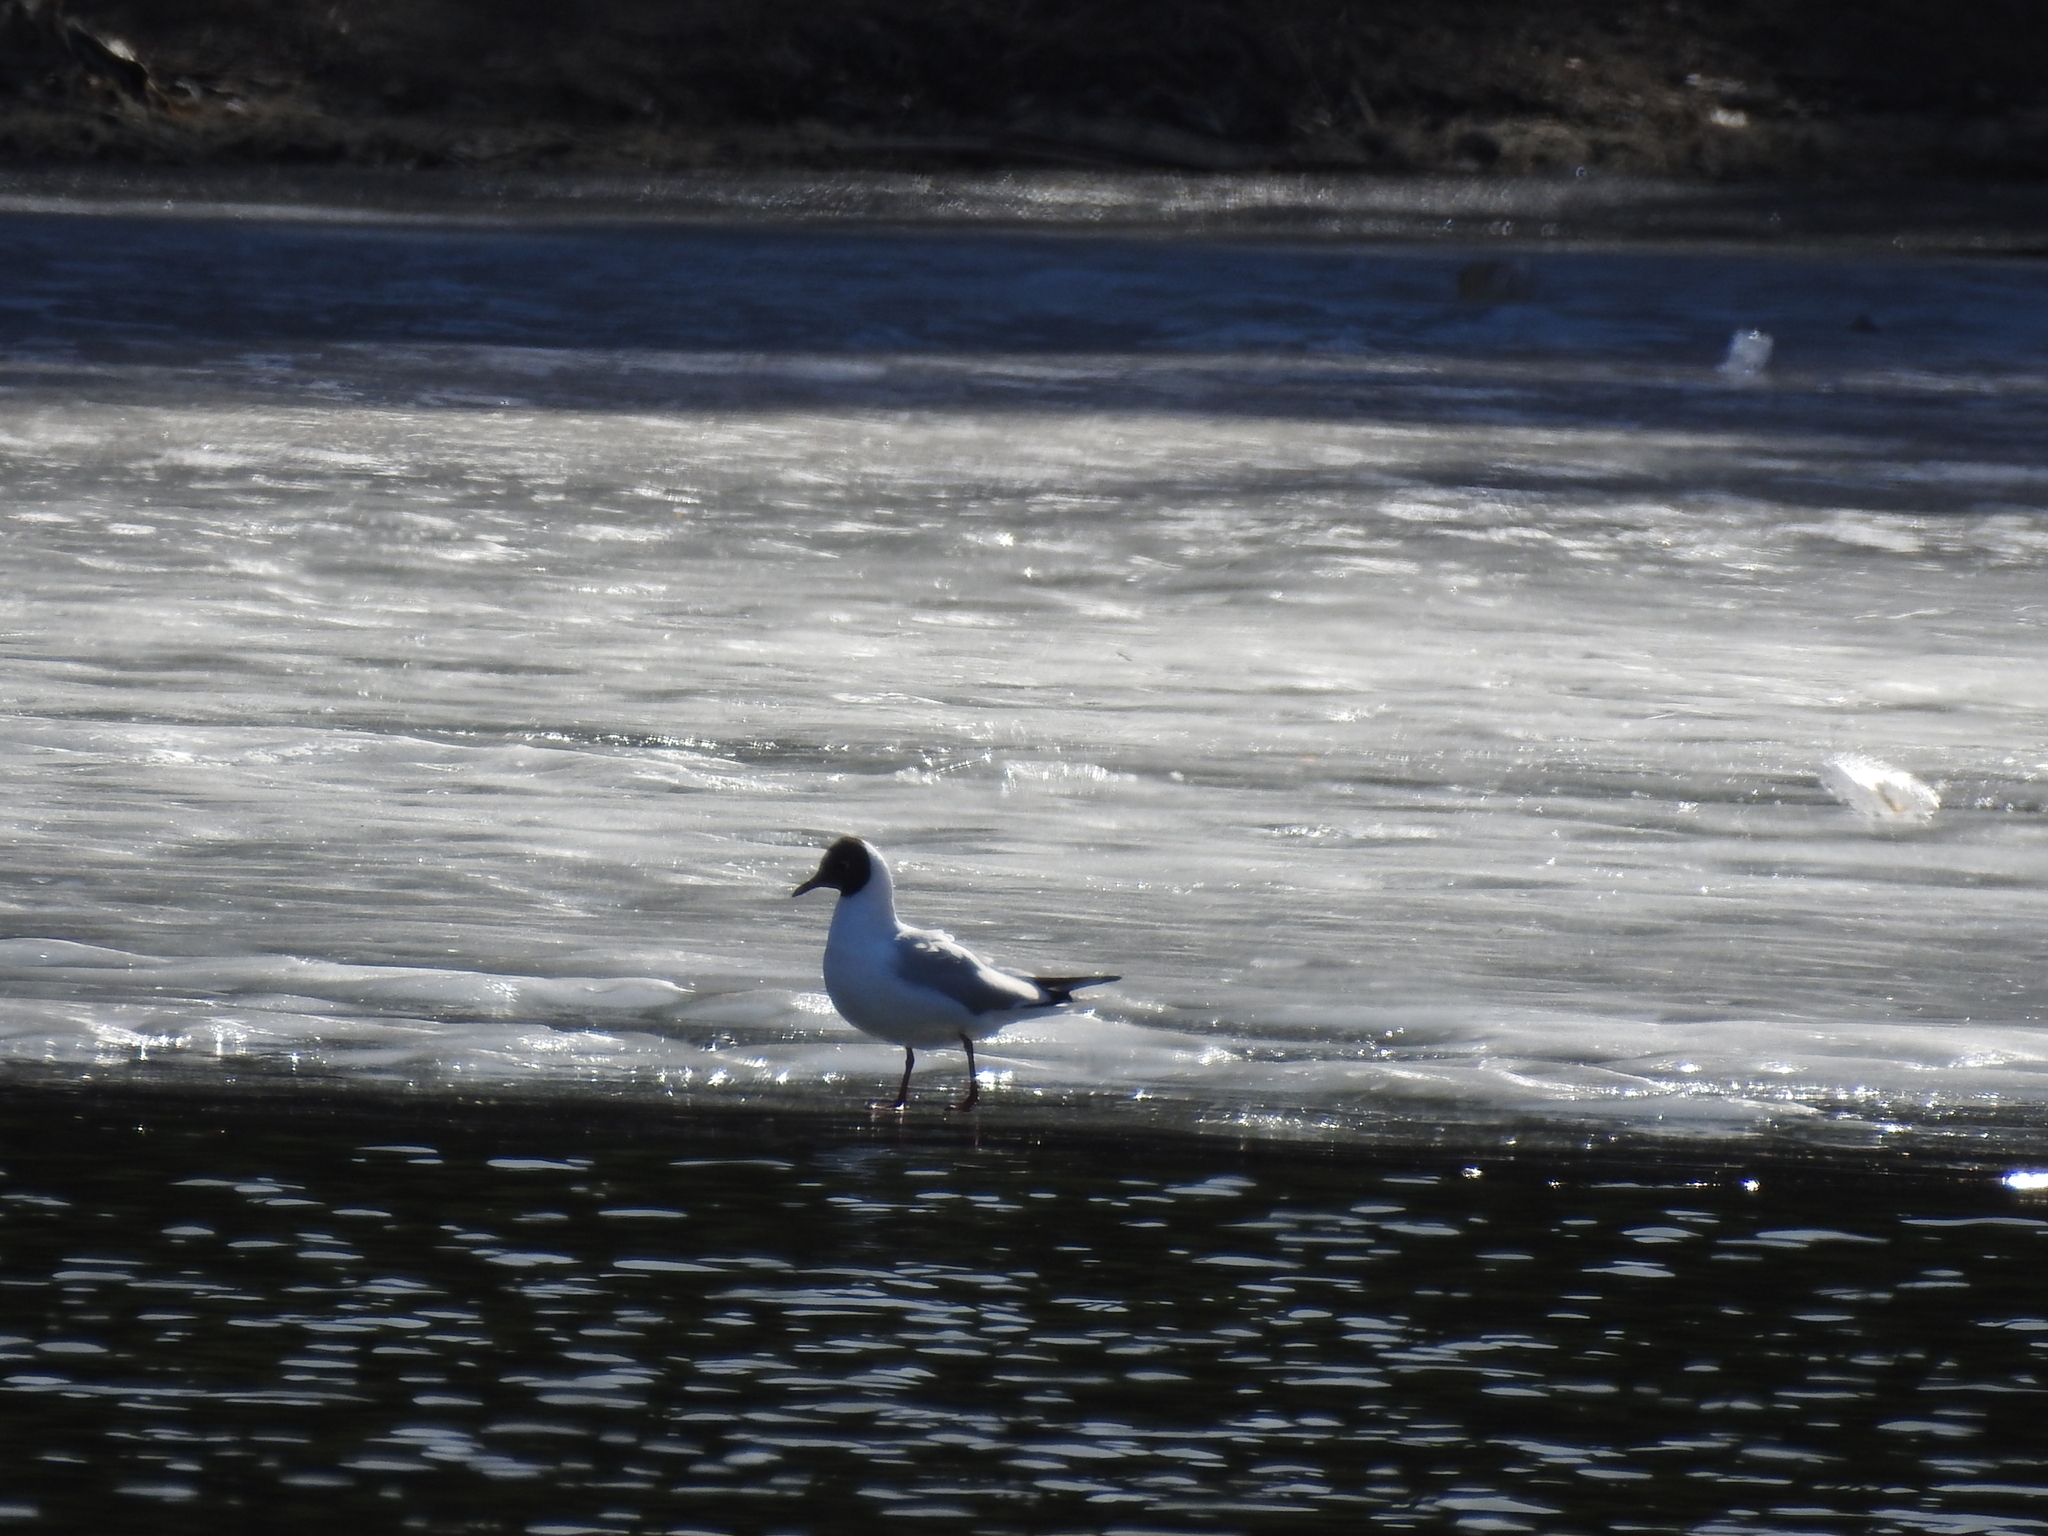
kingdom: Animalia
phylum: Chordata
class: Aves
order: Charadriiformes
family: Laridae
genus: Chroicocephalus
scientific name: Chroicocephalus ridibundus
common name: Black-headed gull
